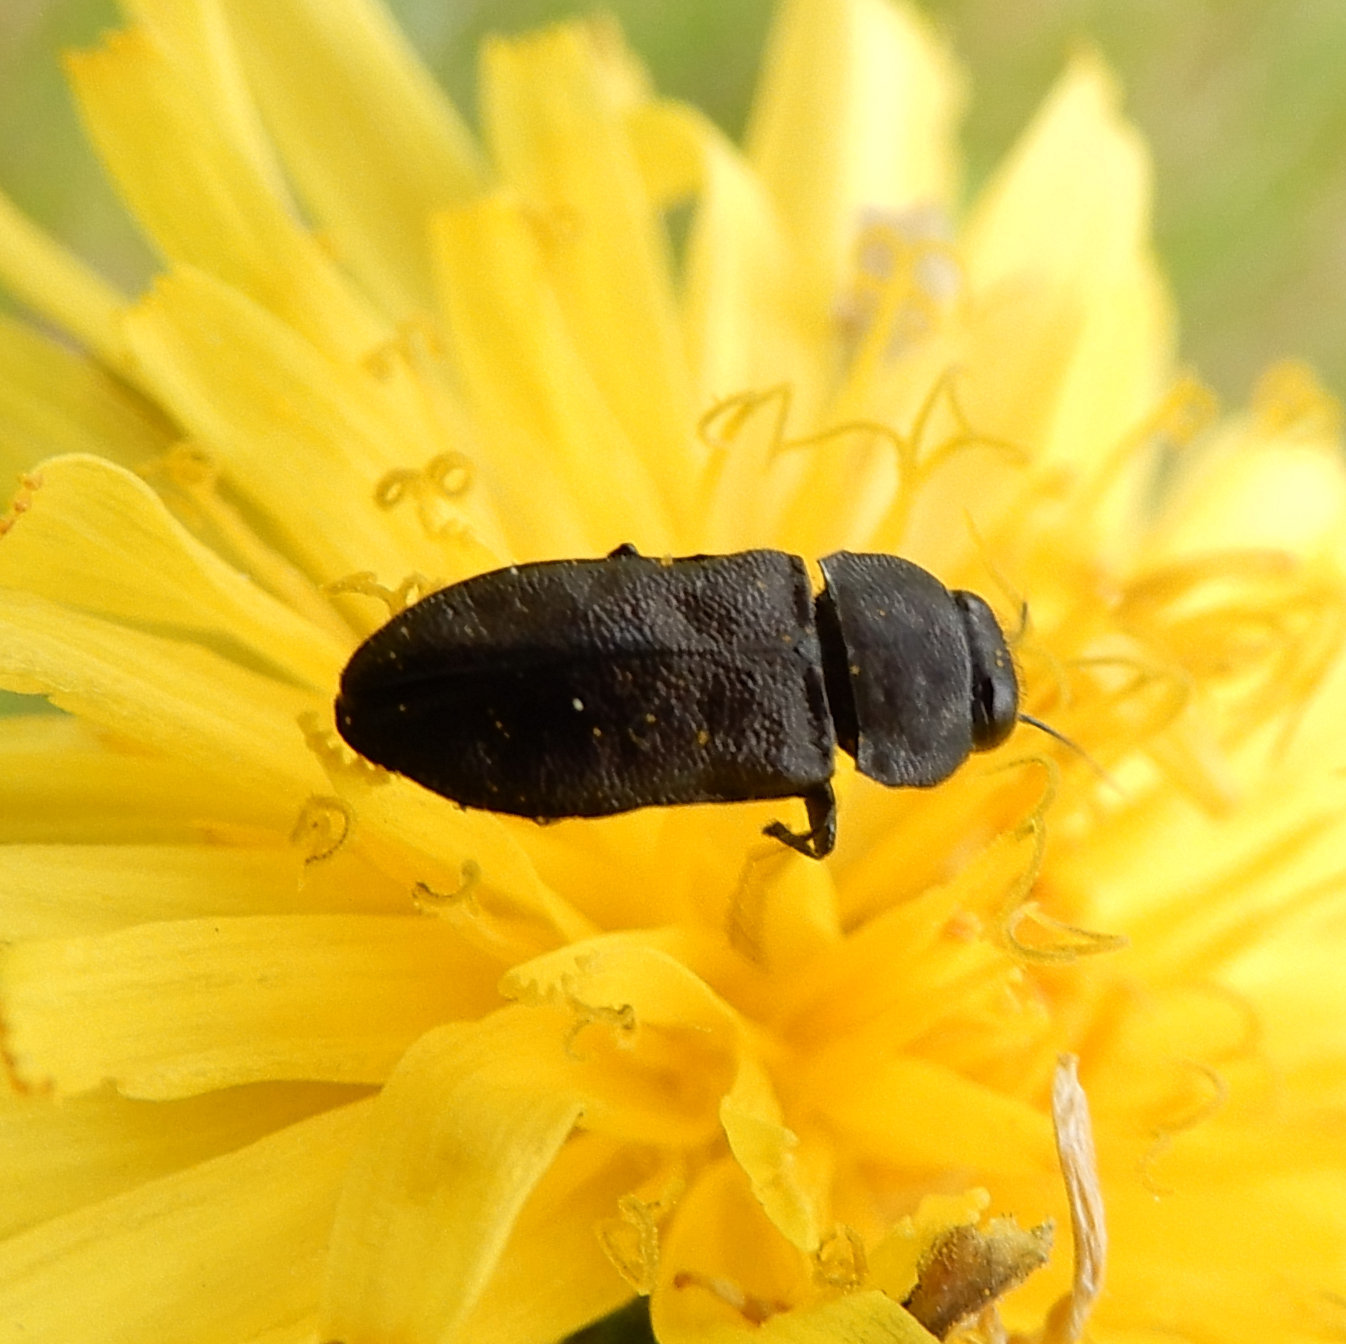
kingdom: Animalia
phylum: Arthropoda
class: Insecta
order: Coleoptera
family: Buprestidae
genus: Anthaxia
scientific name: Anthaxia inornata
